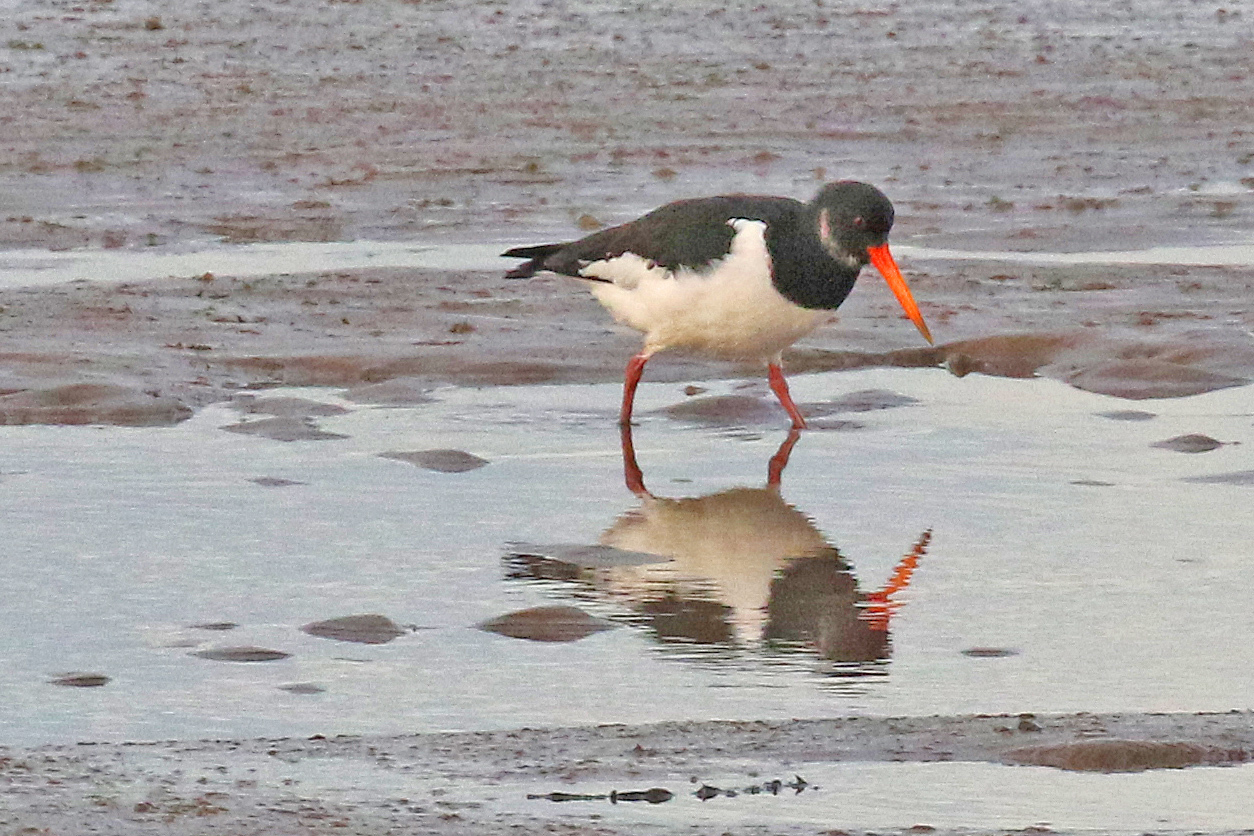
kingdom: Animalia
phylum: Chordata
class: Aves
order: Charadriiformes
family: Haematopodidae
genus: Haematopus
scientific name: Haematopus ostralegus
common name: Eurasian oystercatcher
